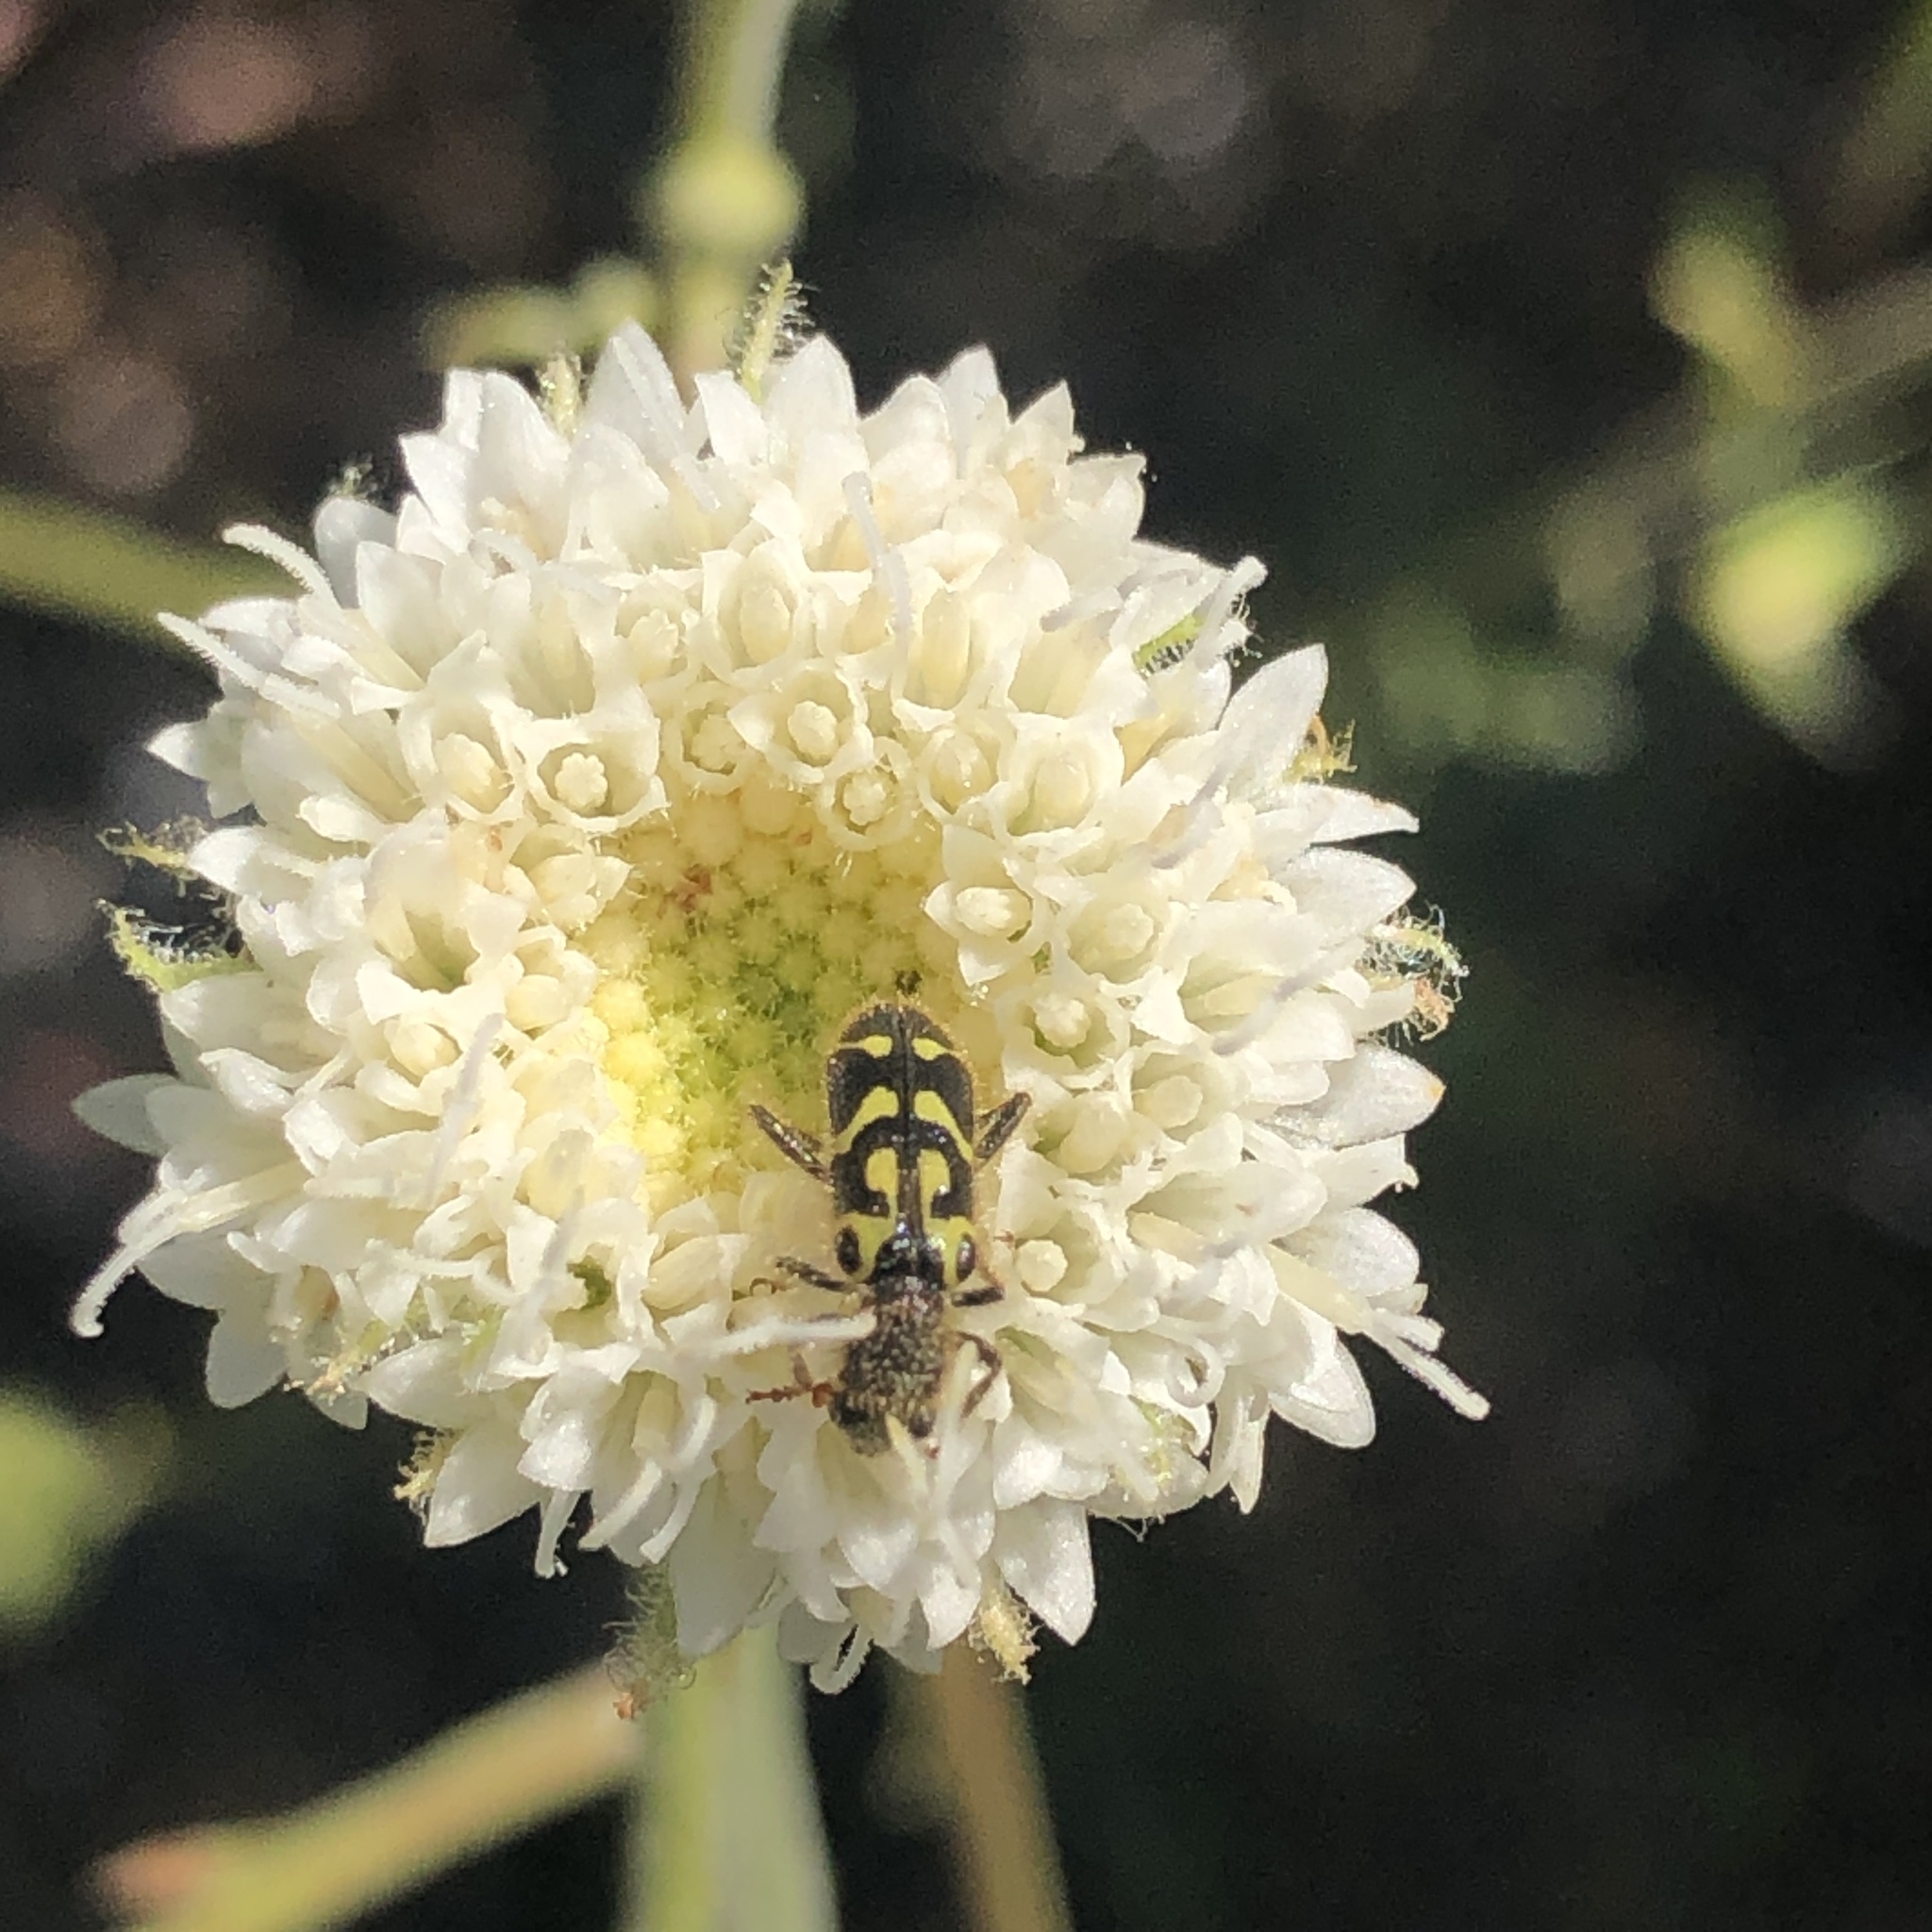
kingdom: Animalia
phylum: Arthropoda
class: Insecta
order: Coleoptera
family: Cleridae
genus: Trichodes
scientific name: Trichodes ornatus
